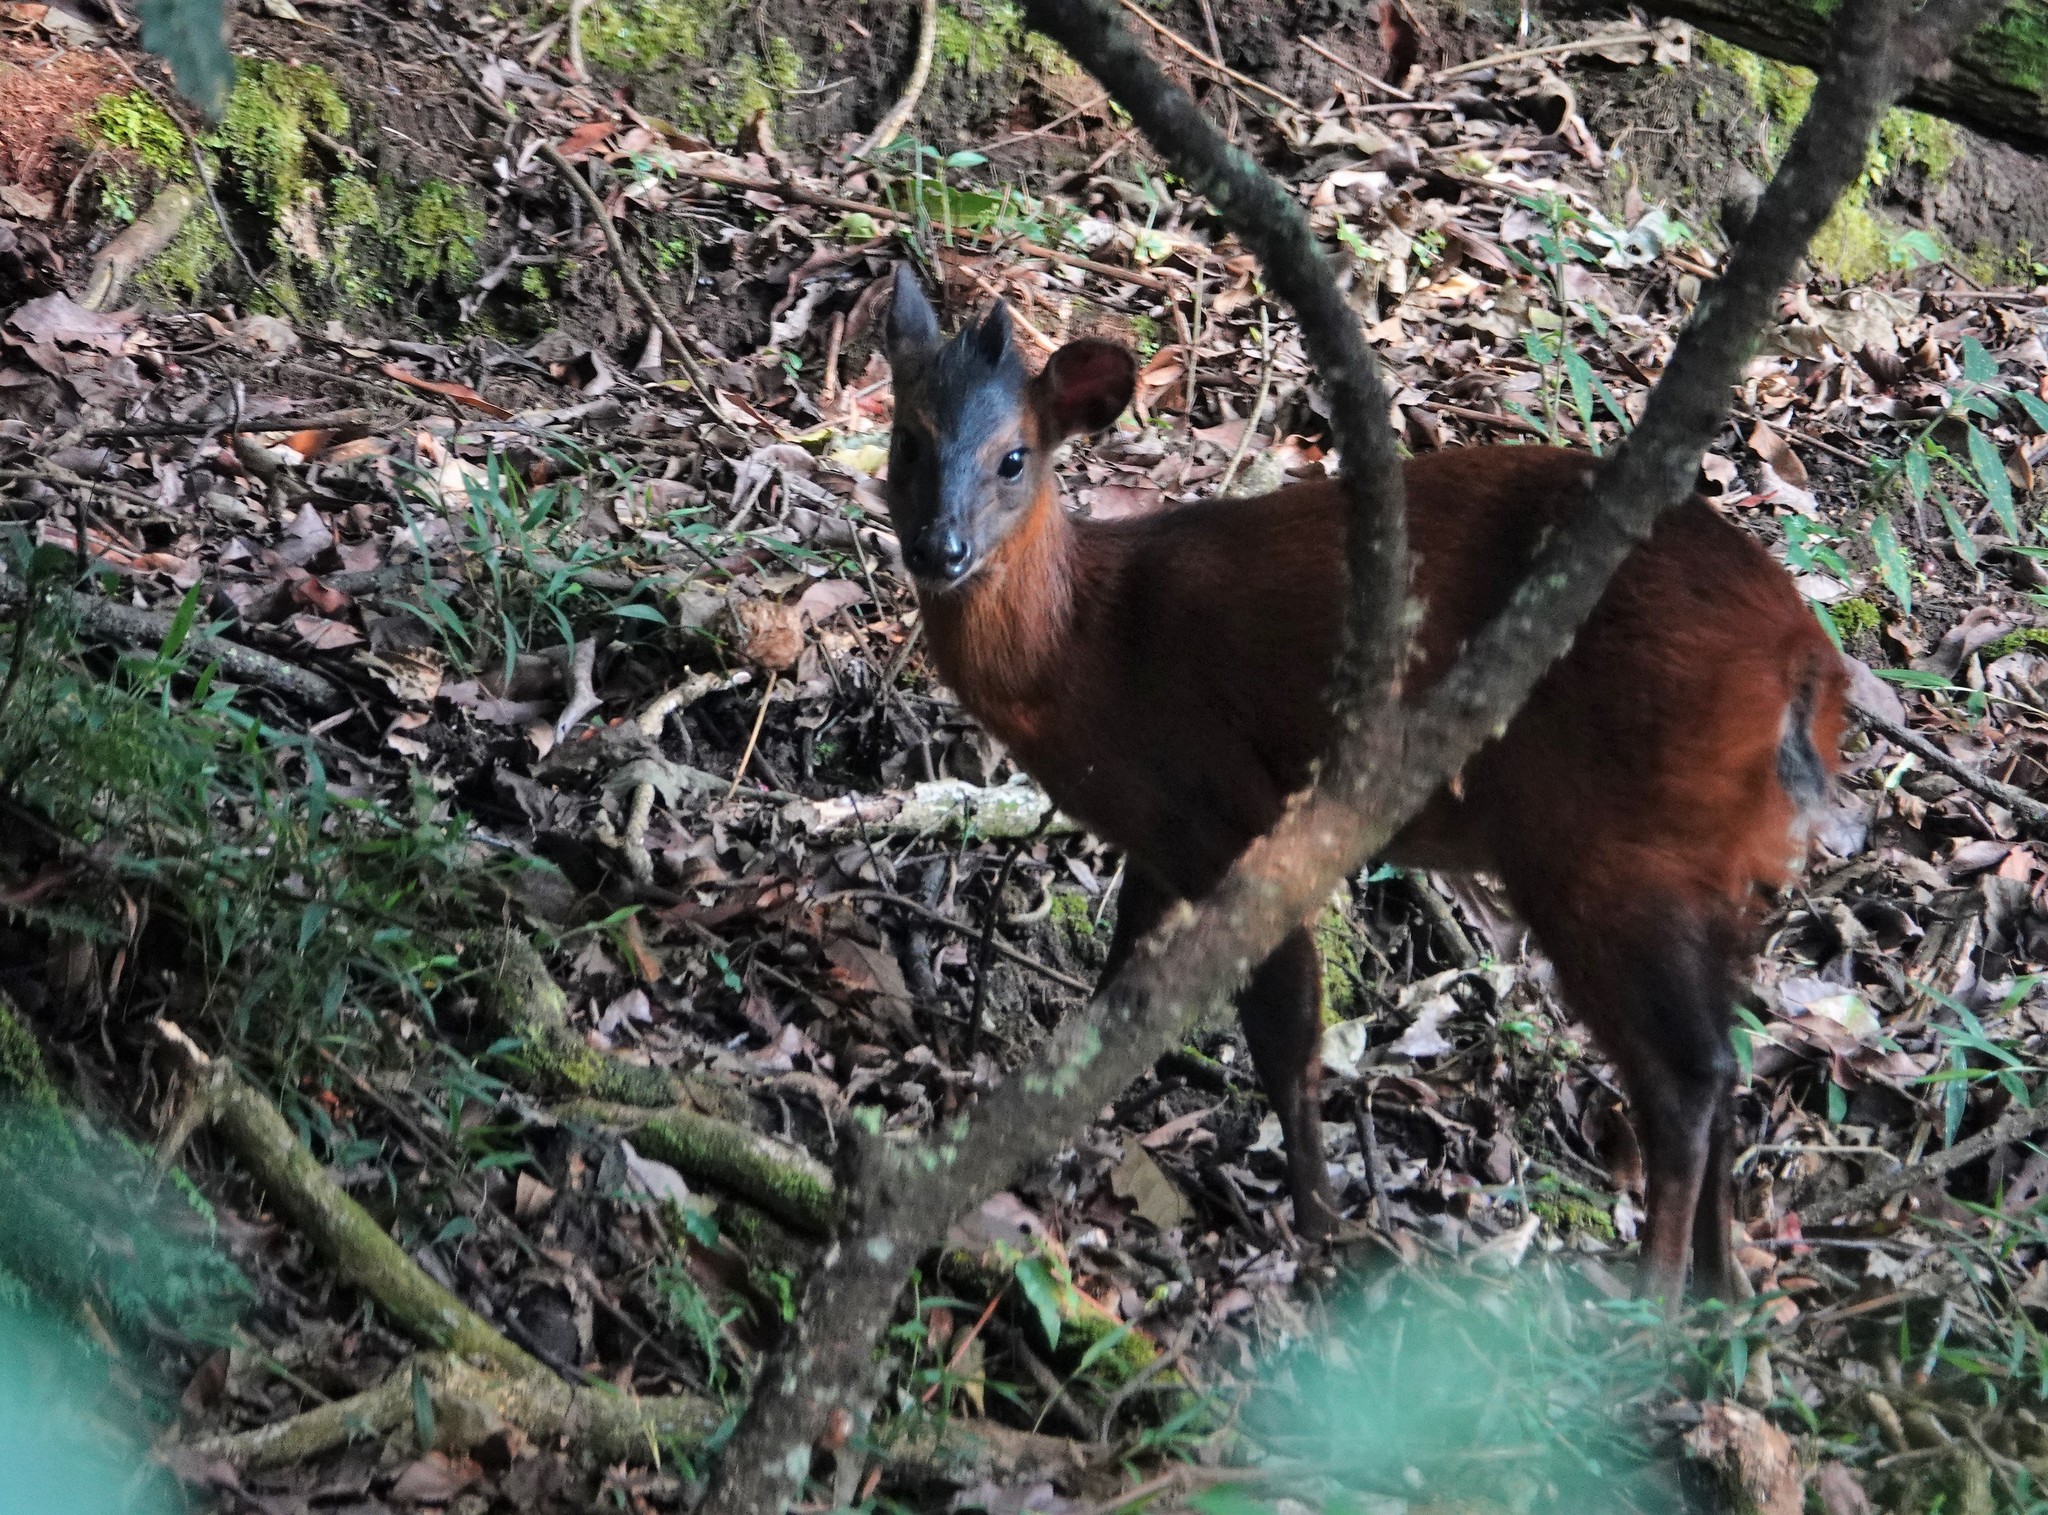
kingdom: Animalia
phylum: Chordata
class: Mammalia
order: Artiodactyla
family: Bovidae
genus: Cephalophus
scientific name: Cephalophus nigrifrons
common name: Black-fronted duiker
